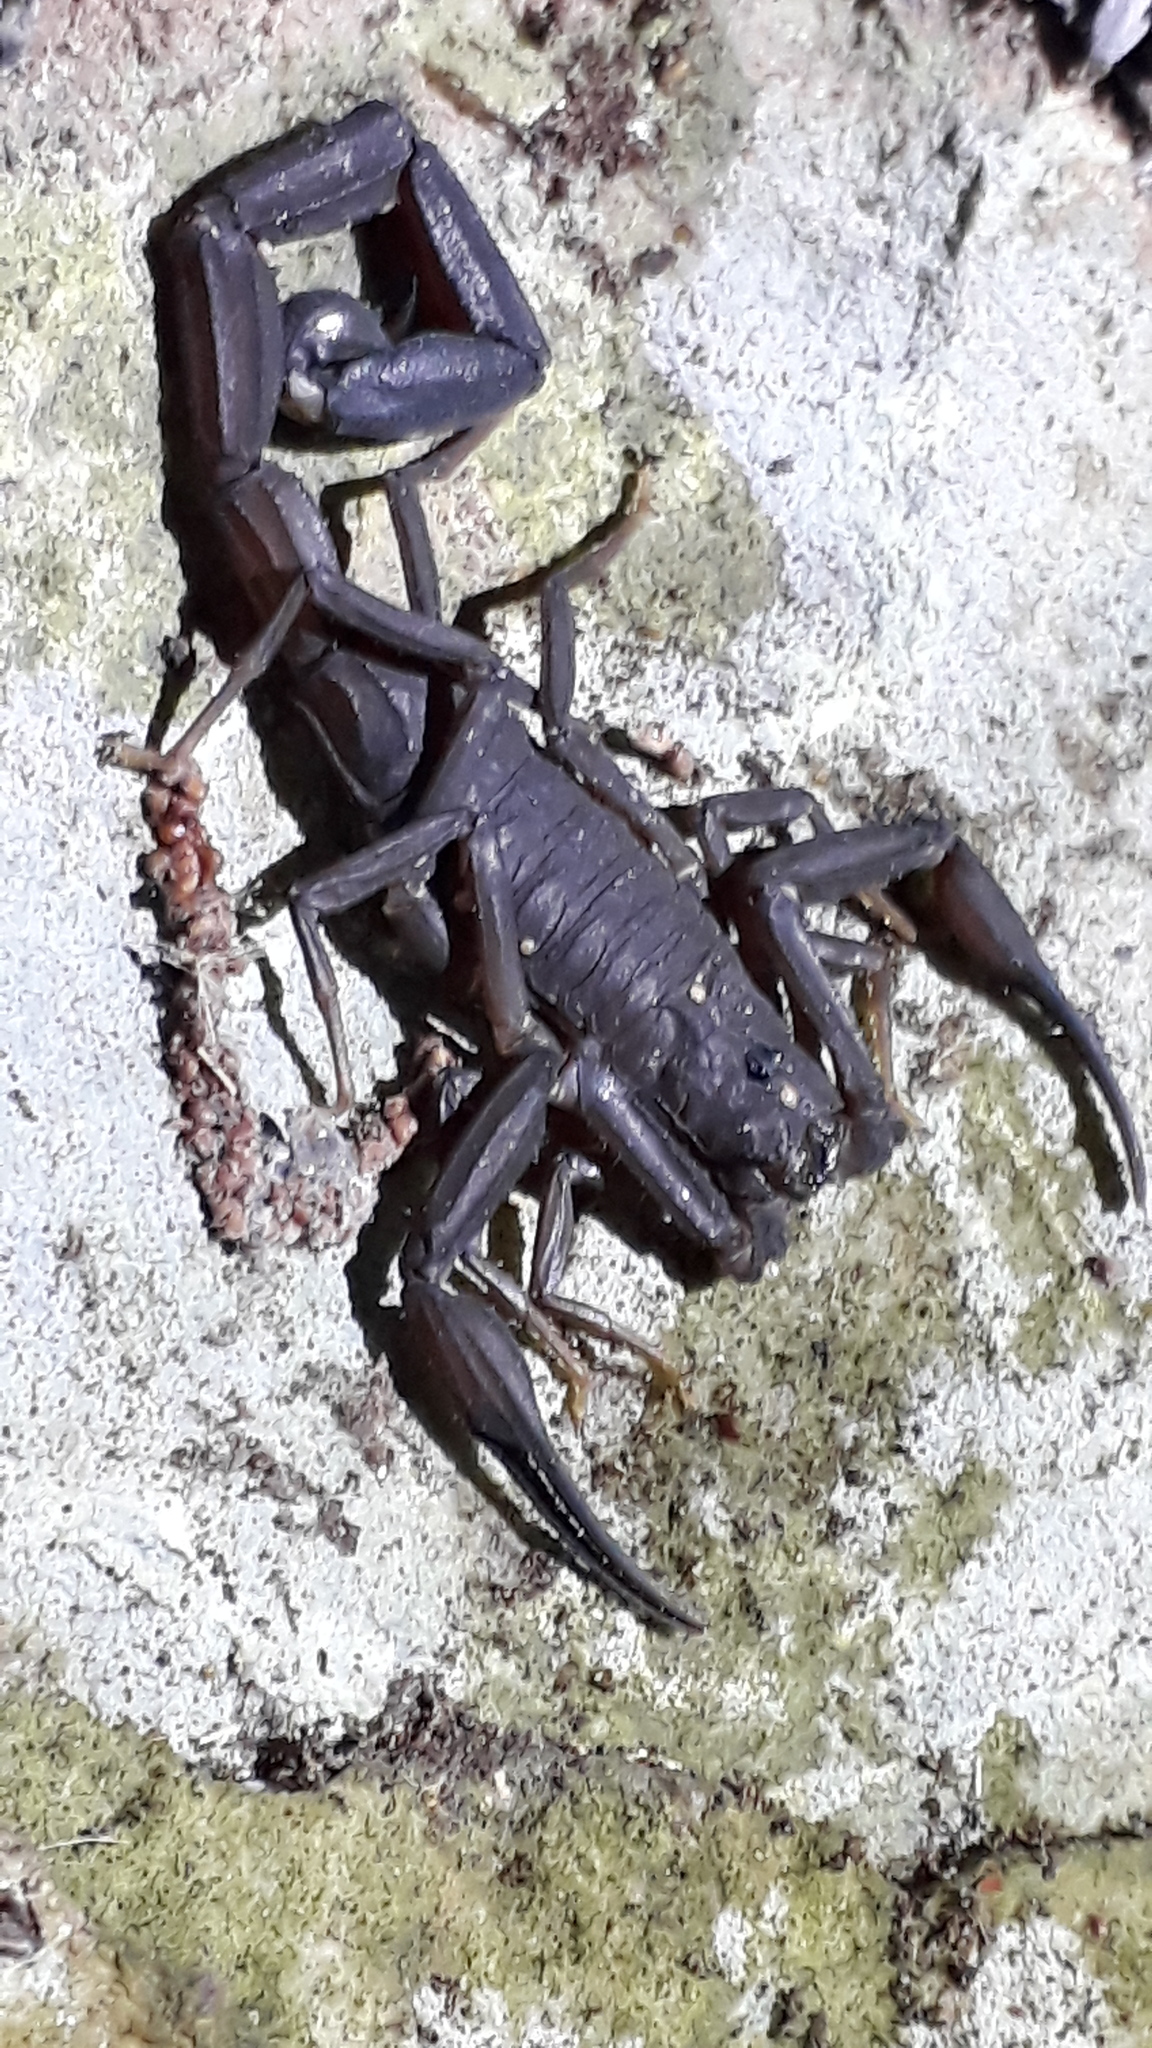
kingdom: Animalia
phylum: Arthropoda
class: Arachnida
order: Scorpiones
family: Buthidae
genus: Tityus
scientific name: Tityus nematochirus
